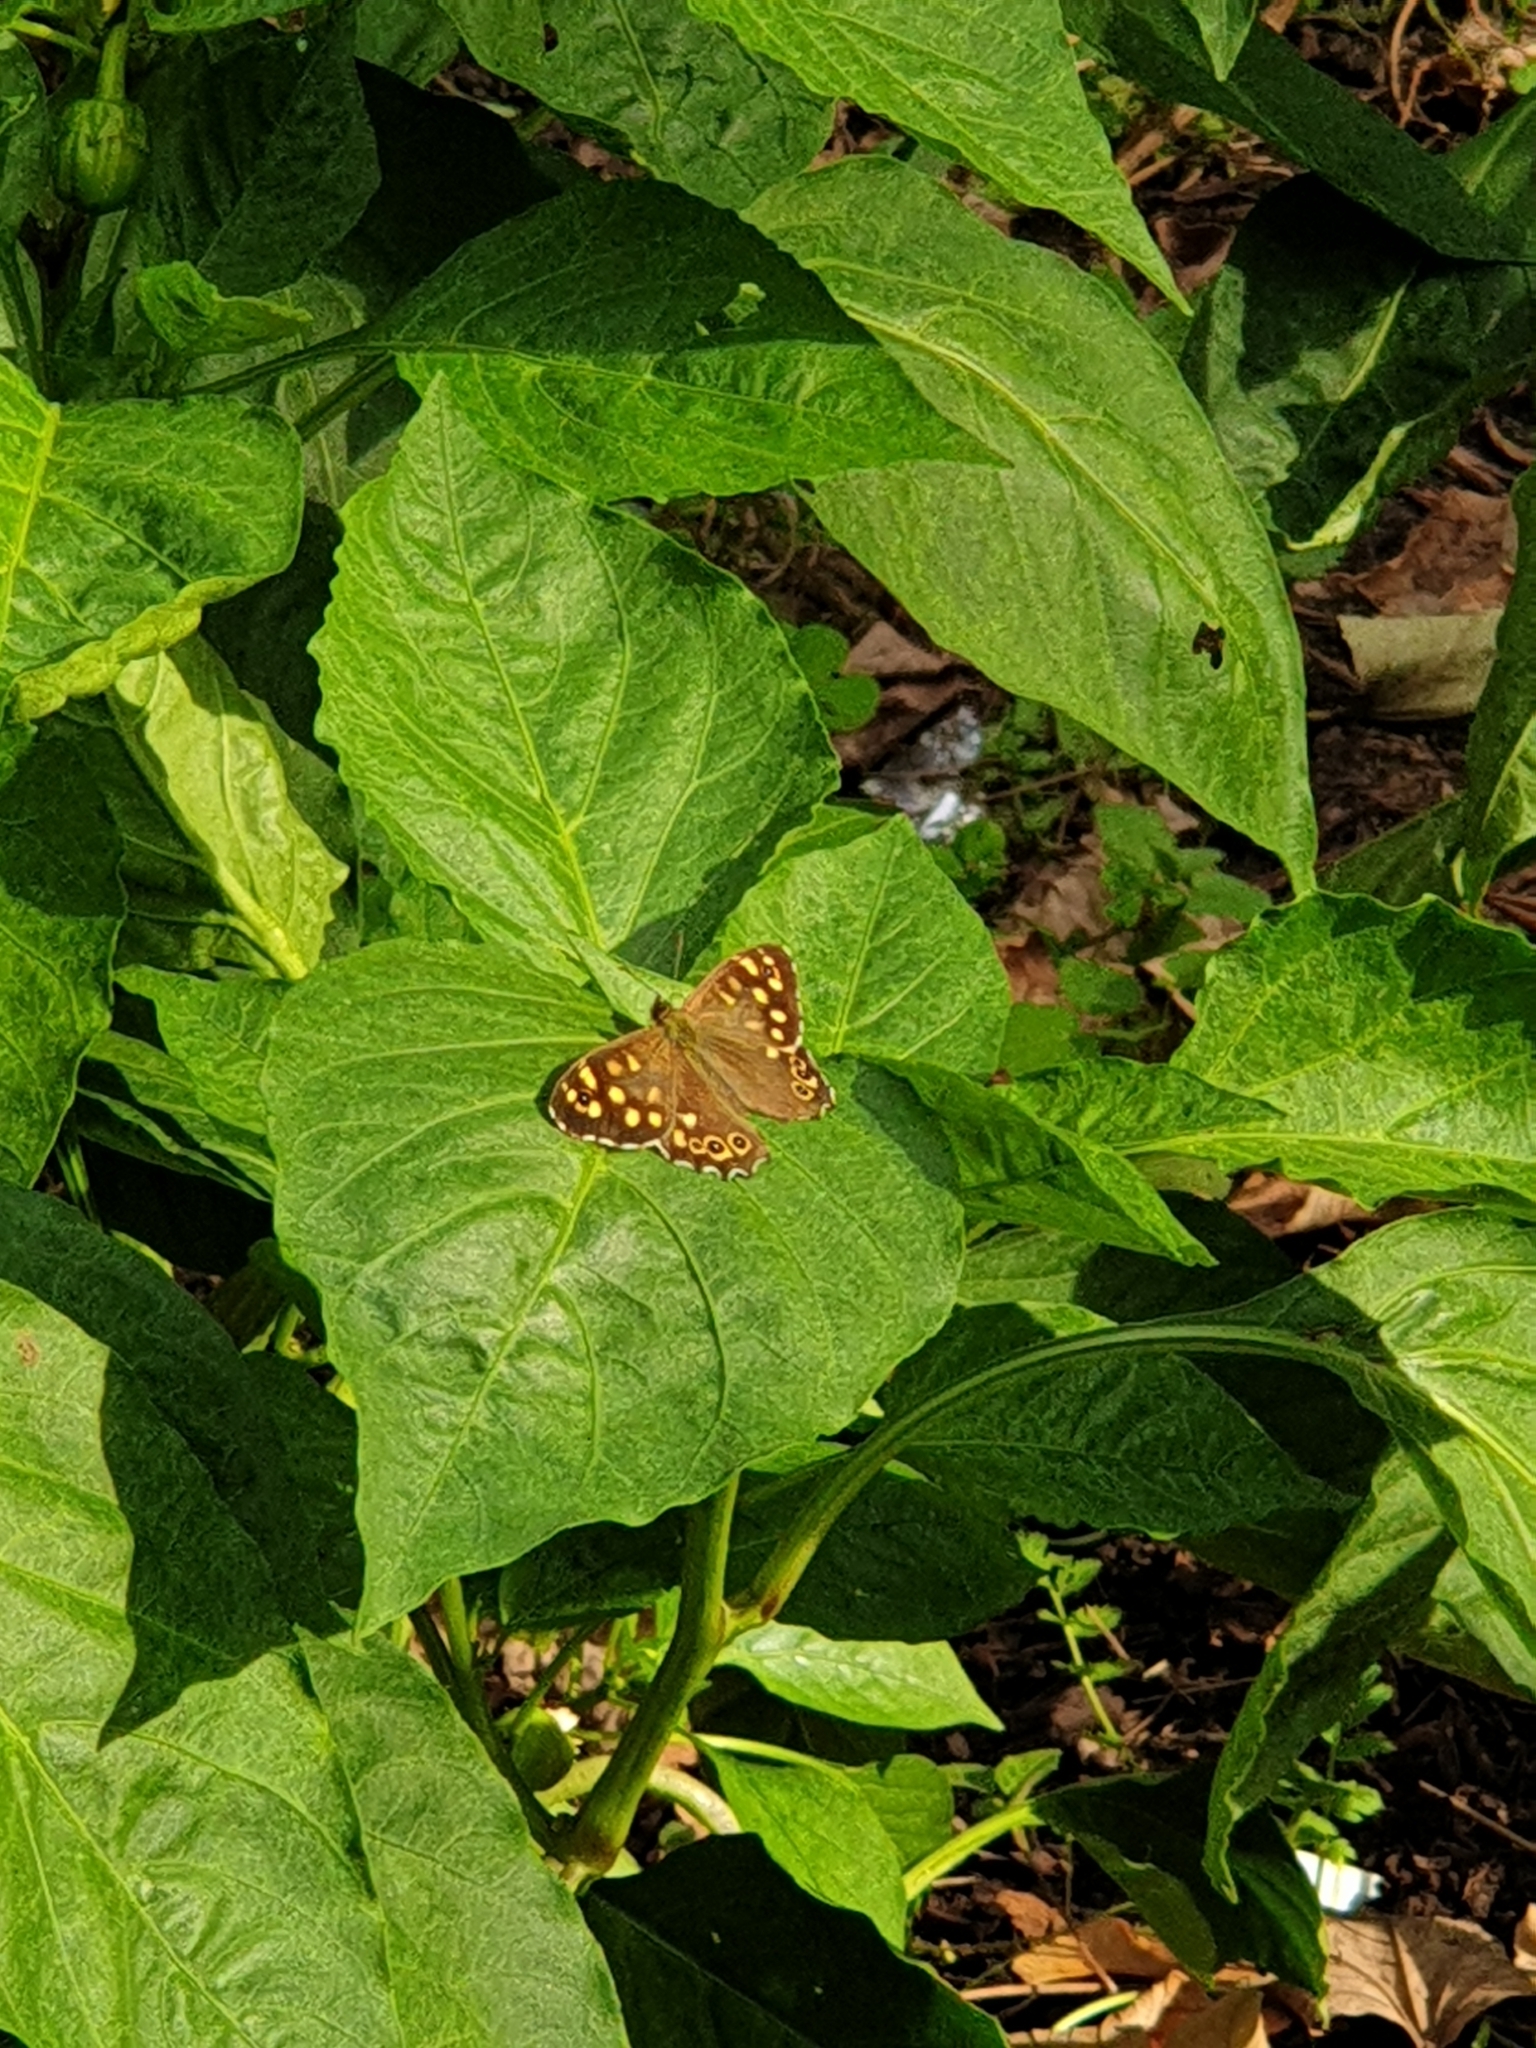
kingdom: Animalia
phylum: Arthropoda
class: Insecta
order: Lepidoptera
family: Nymphalidae
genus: Pararge
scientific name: Pararge aegeria
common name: Speckled wood
